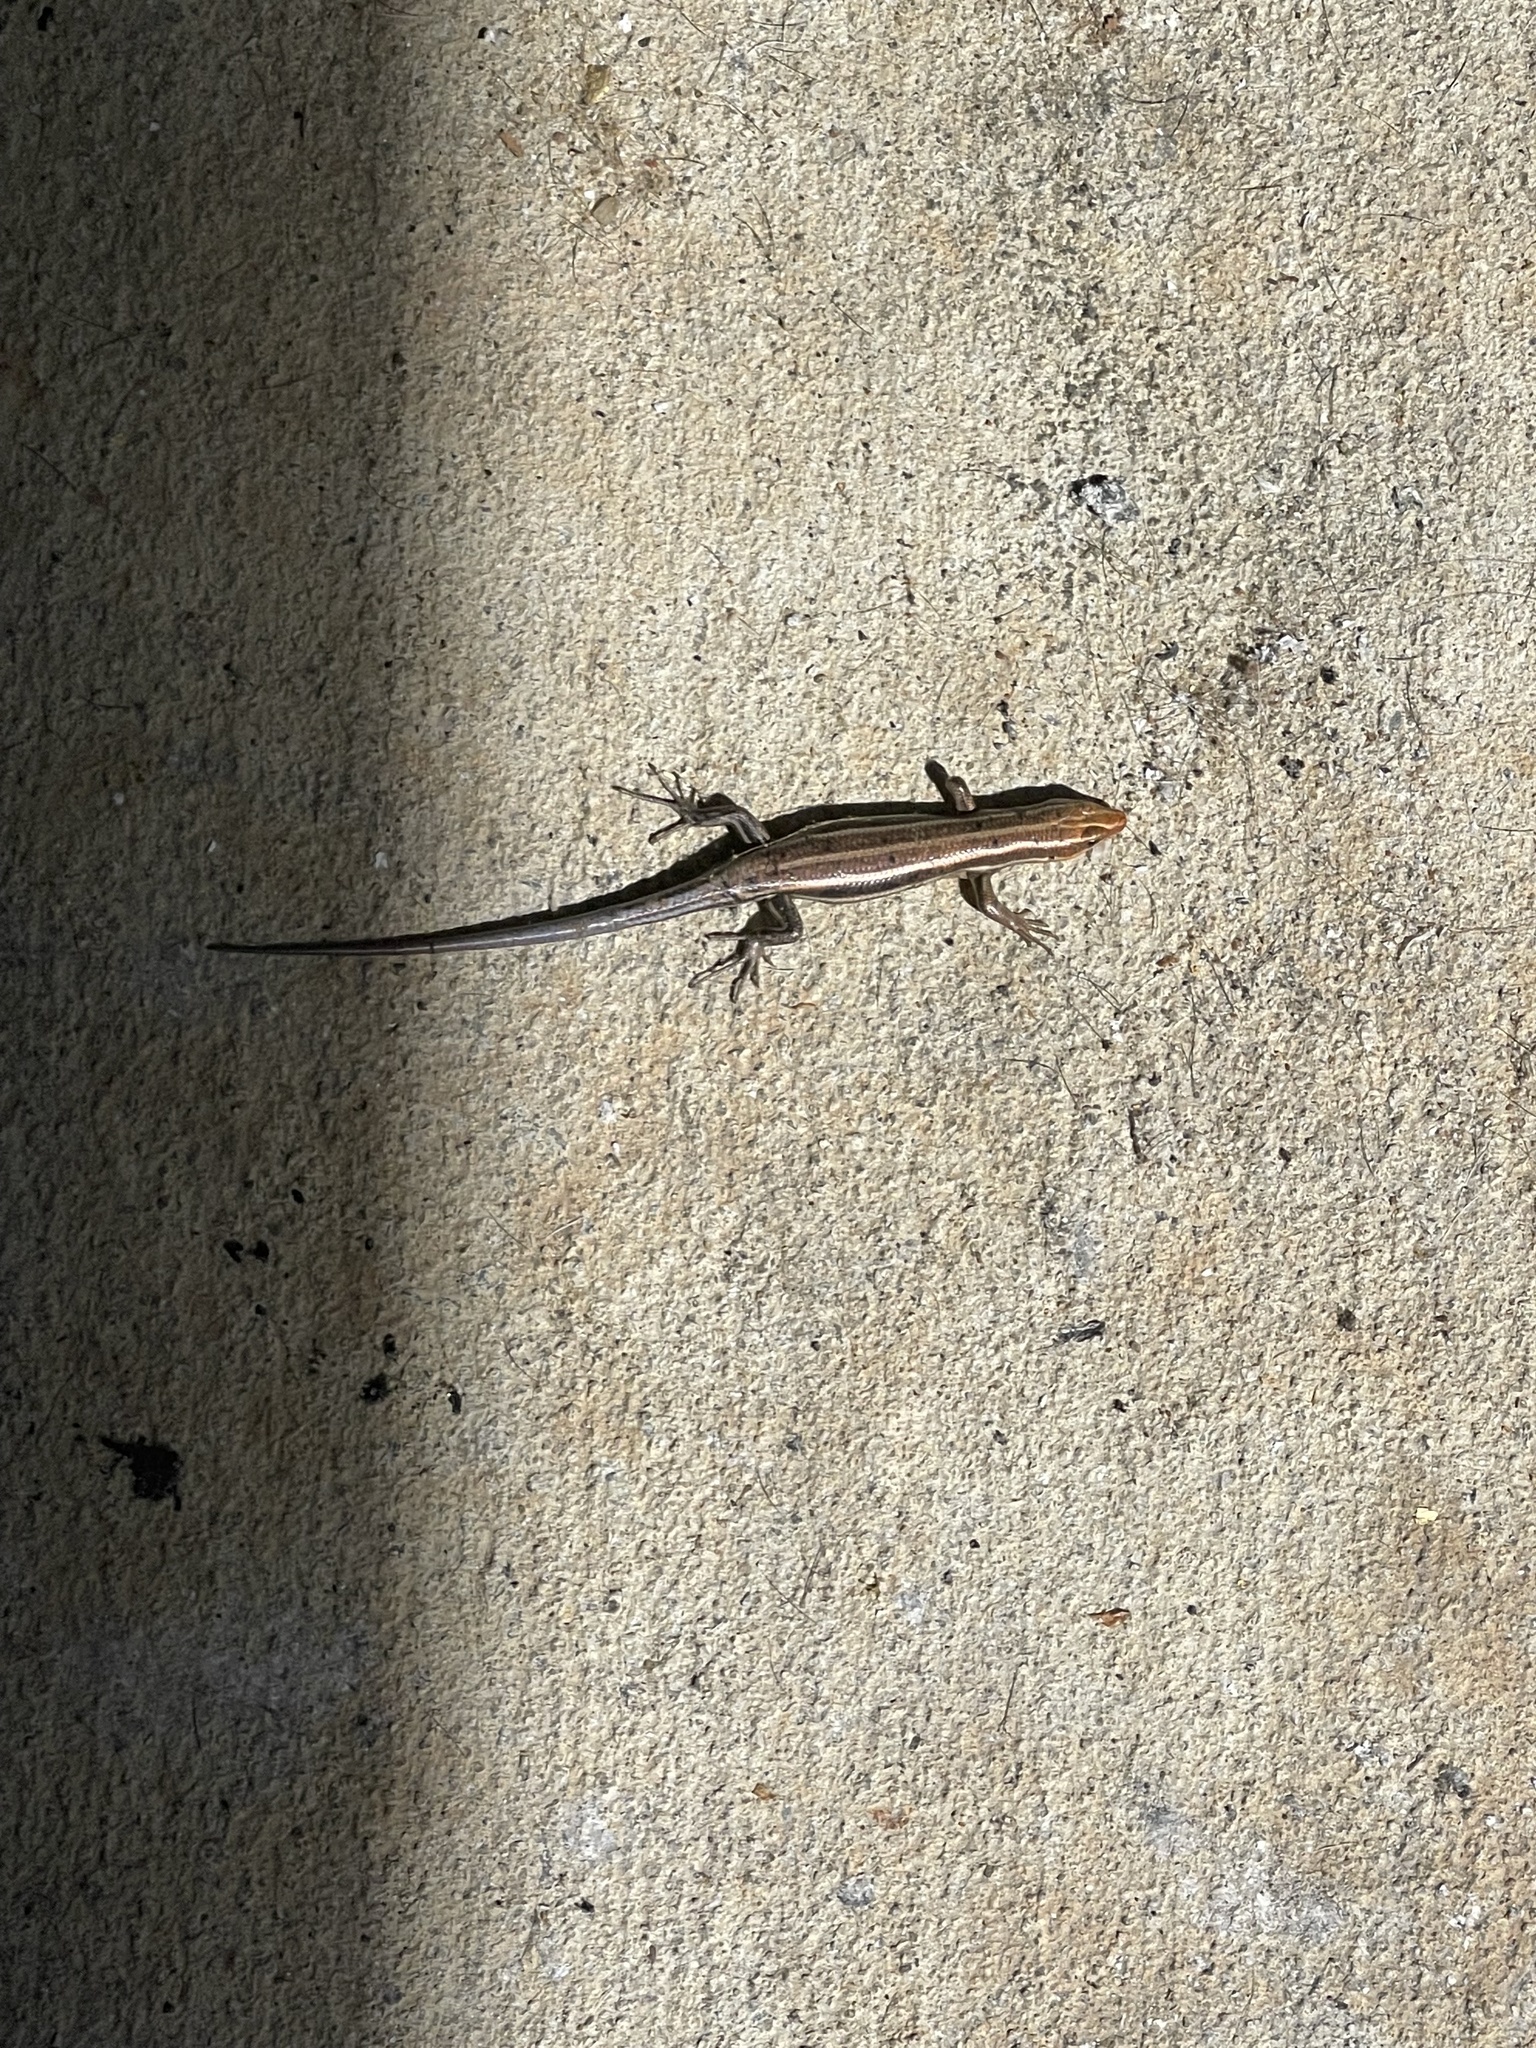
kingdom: Animalia
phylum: Chordata
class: Squamata
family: Scincidae
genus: Plestiodon
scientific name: Plestiodon fasciatus
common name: Five-lined skink
